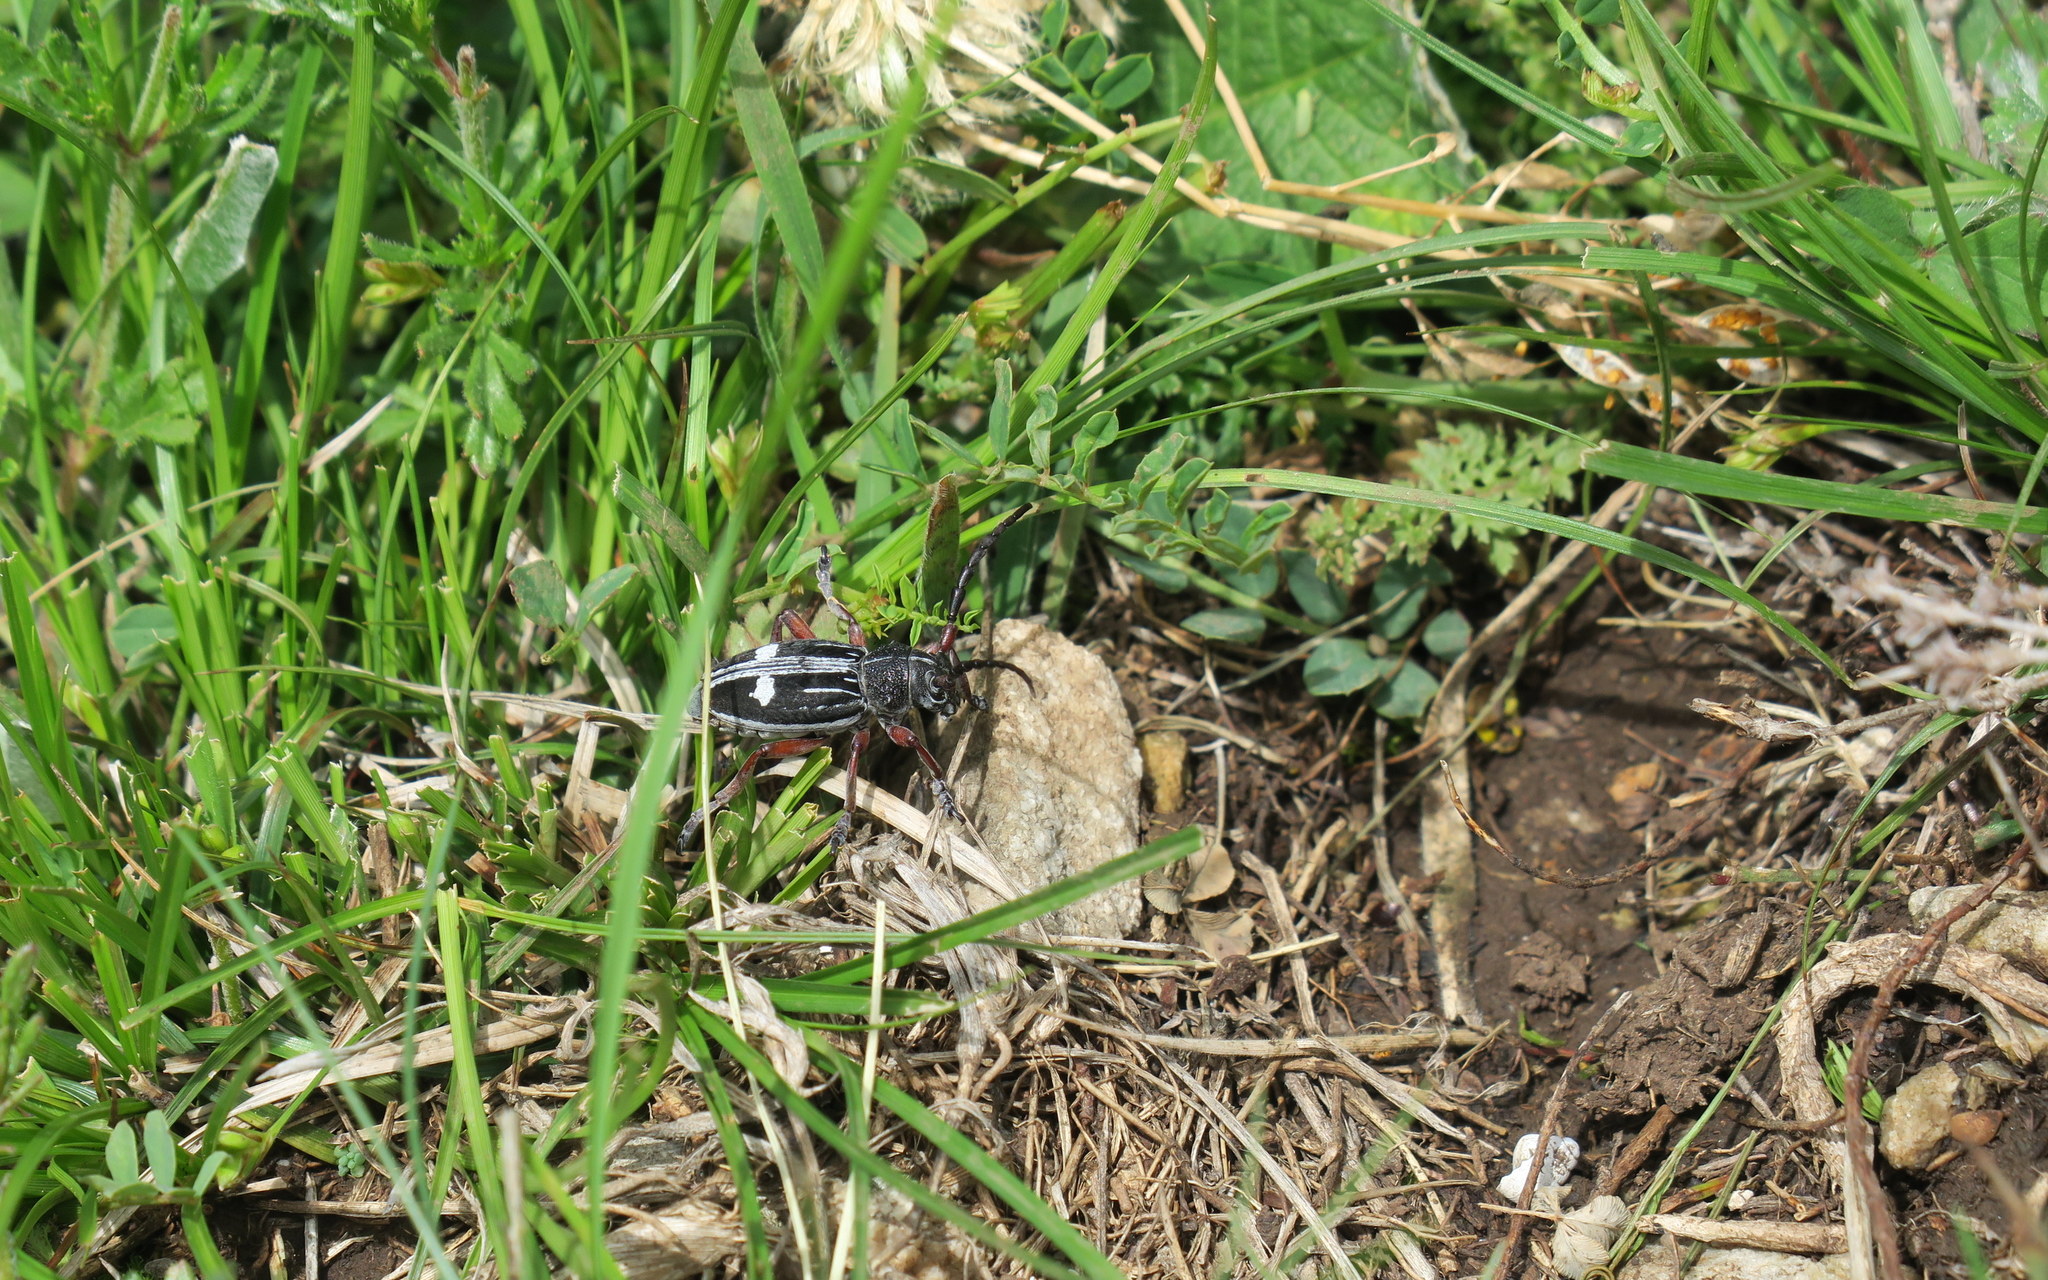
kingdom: Animalia
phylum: Arthropoda
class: Insecta
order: Coleoptera
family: Cerambycidae
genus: Dorcadion
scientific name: Dorcadion equestre
